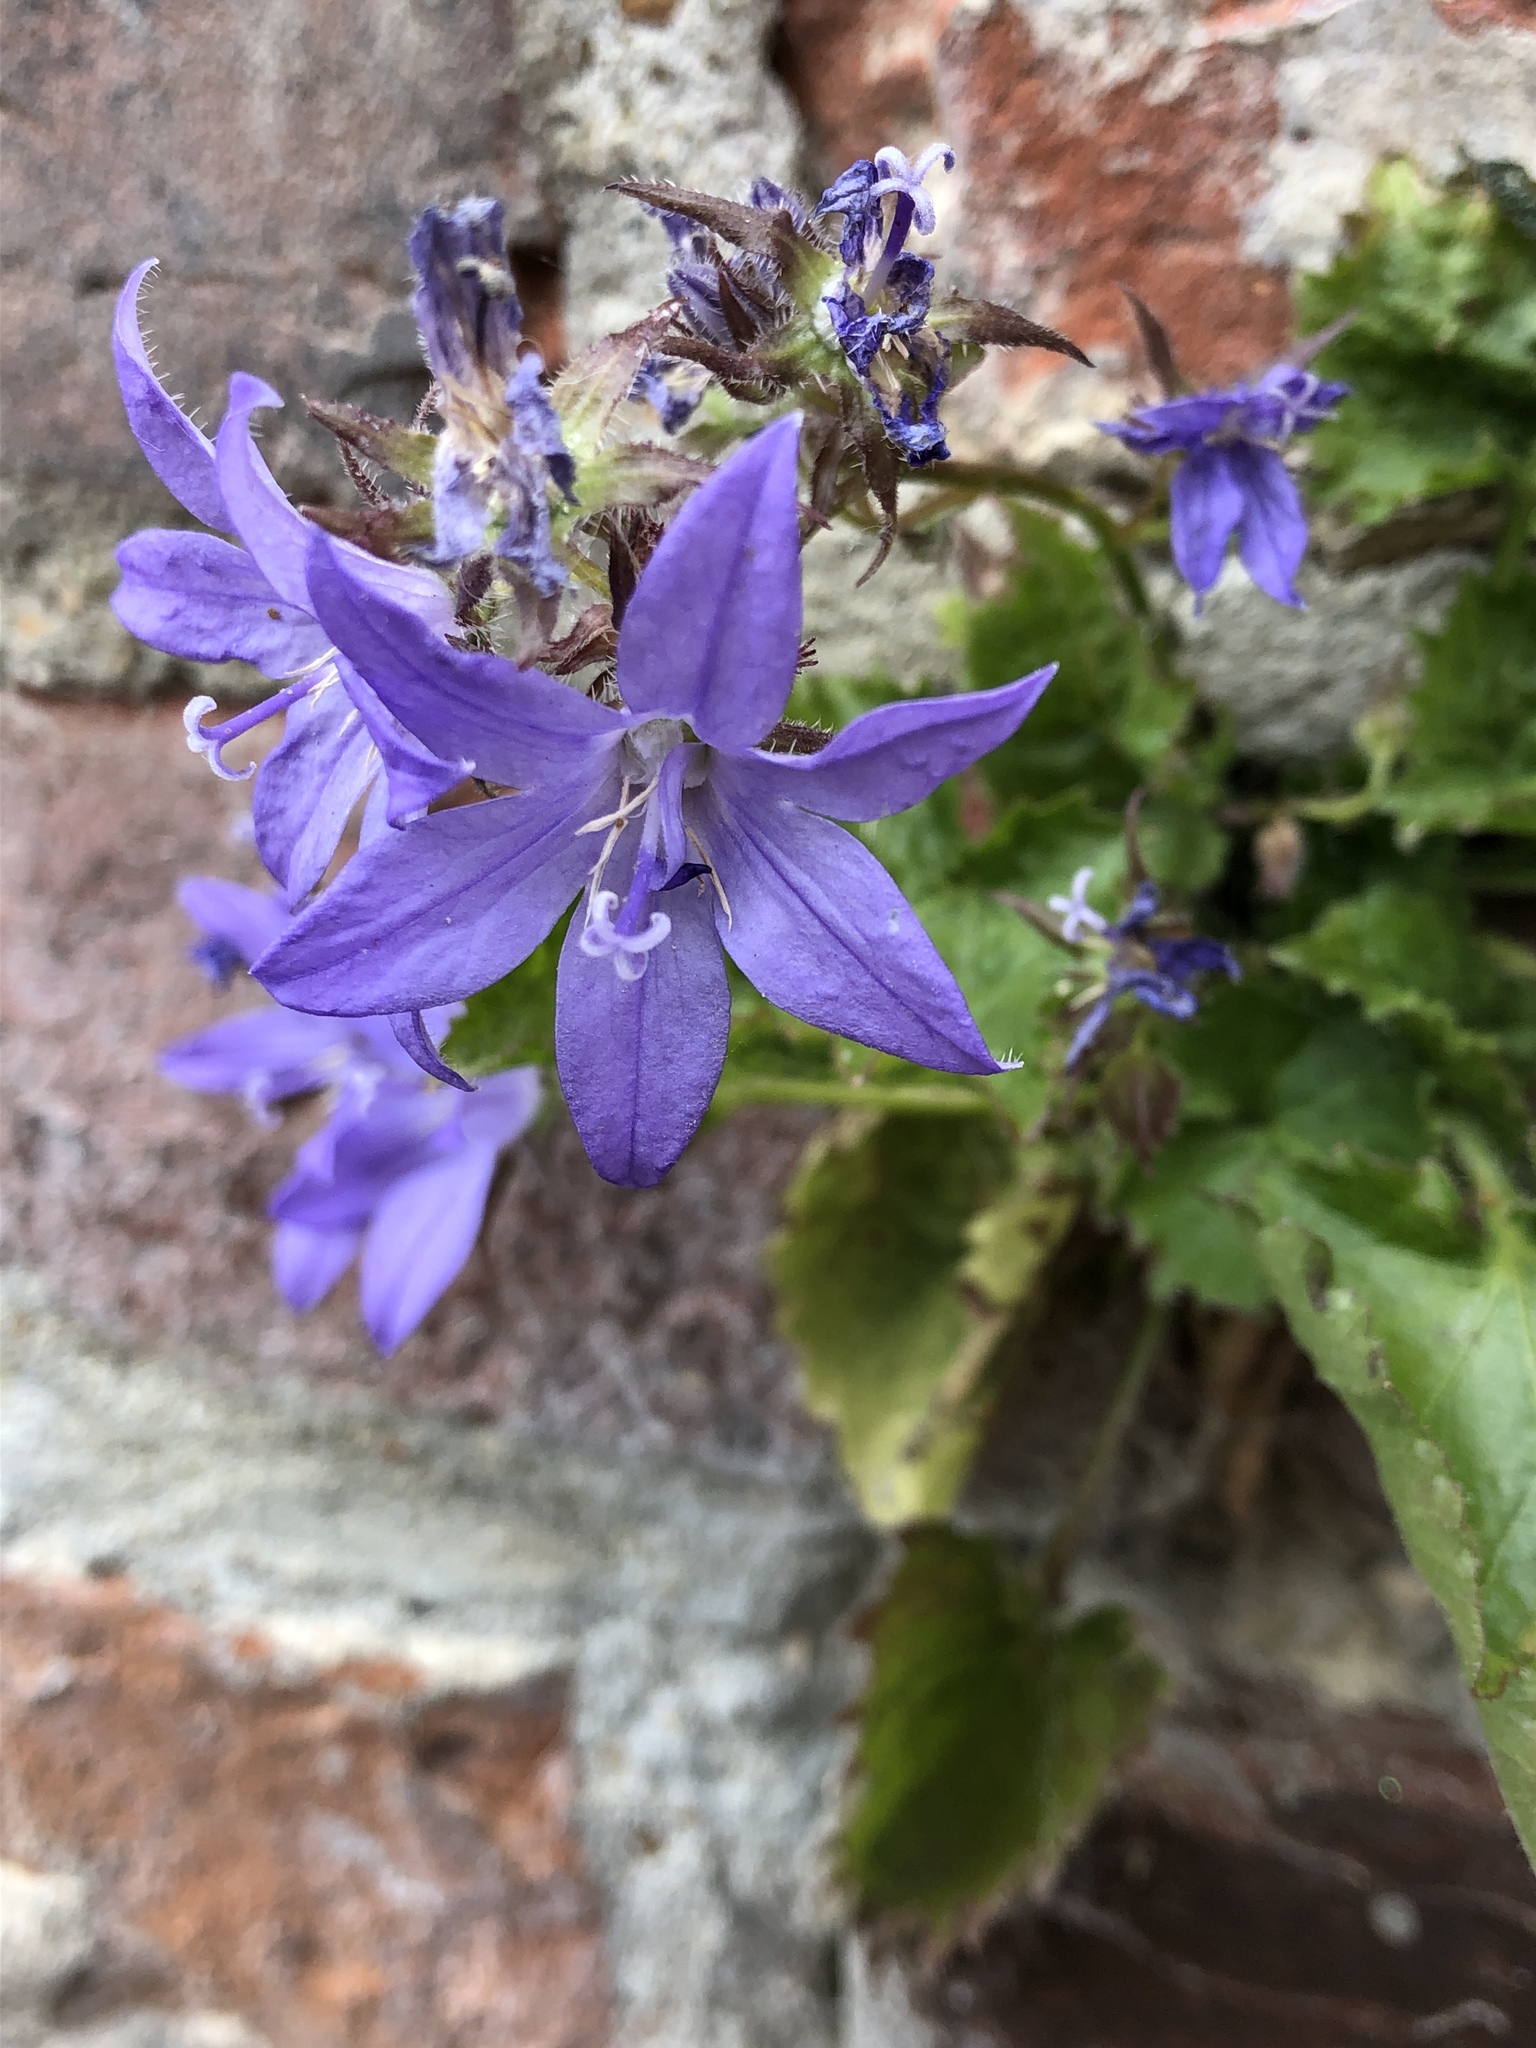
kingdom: Plantae
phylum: Tracheophyta
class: Magnoliopsida
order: Asterales
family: Campanulaceae
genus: Campanula
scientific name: Campanula poscharskyana
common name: Trailing bellflower
